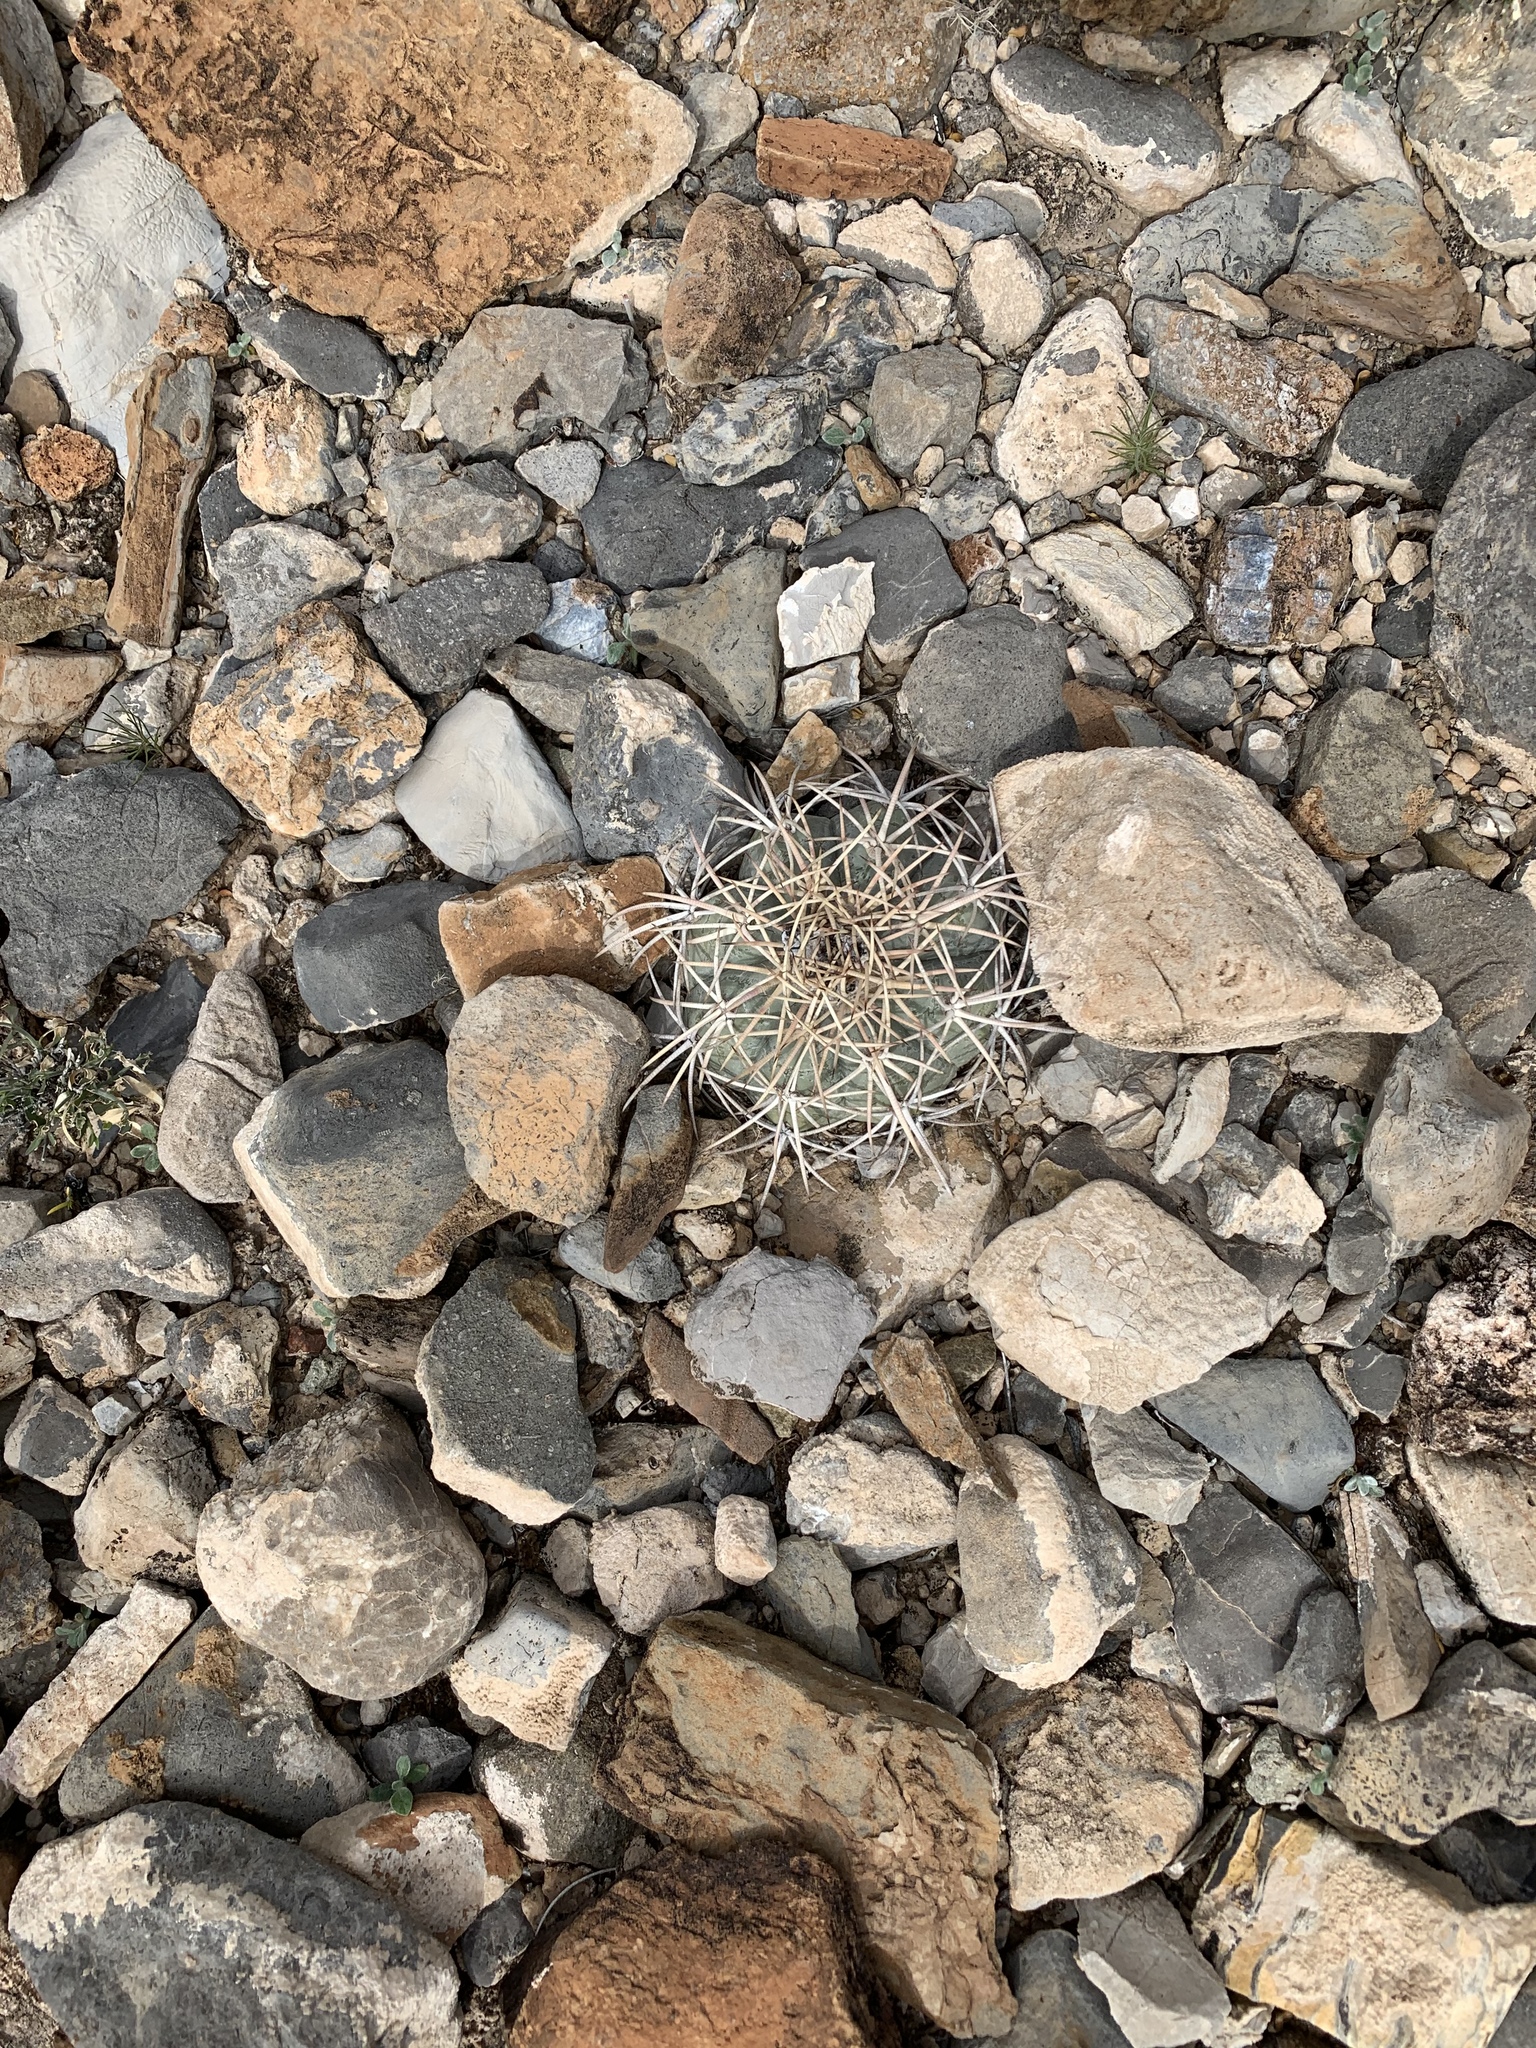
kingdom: Plantae
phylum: Tracheophyta
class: Magnoliopsida
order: Caryophyllales
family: Cactaceae
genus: Echinocactus
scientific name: Echinocactus horizonthalonius
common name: Devilshead
